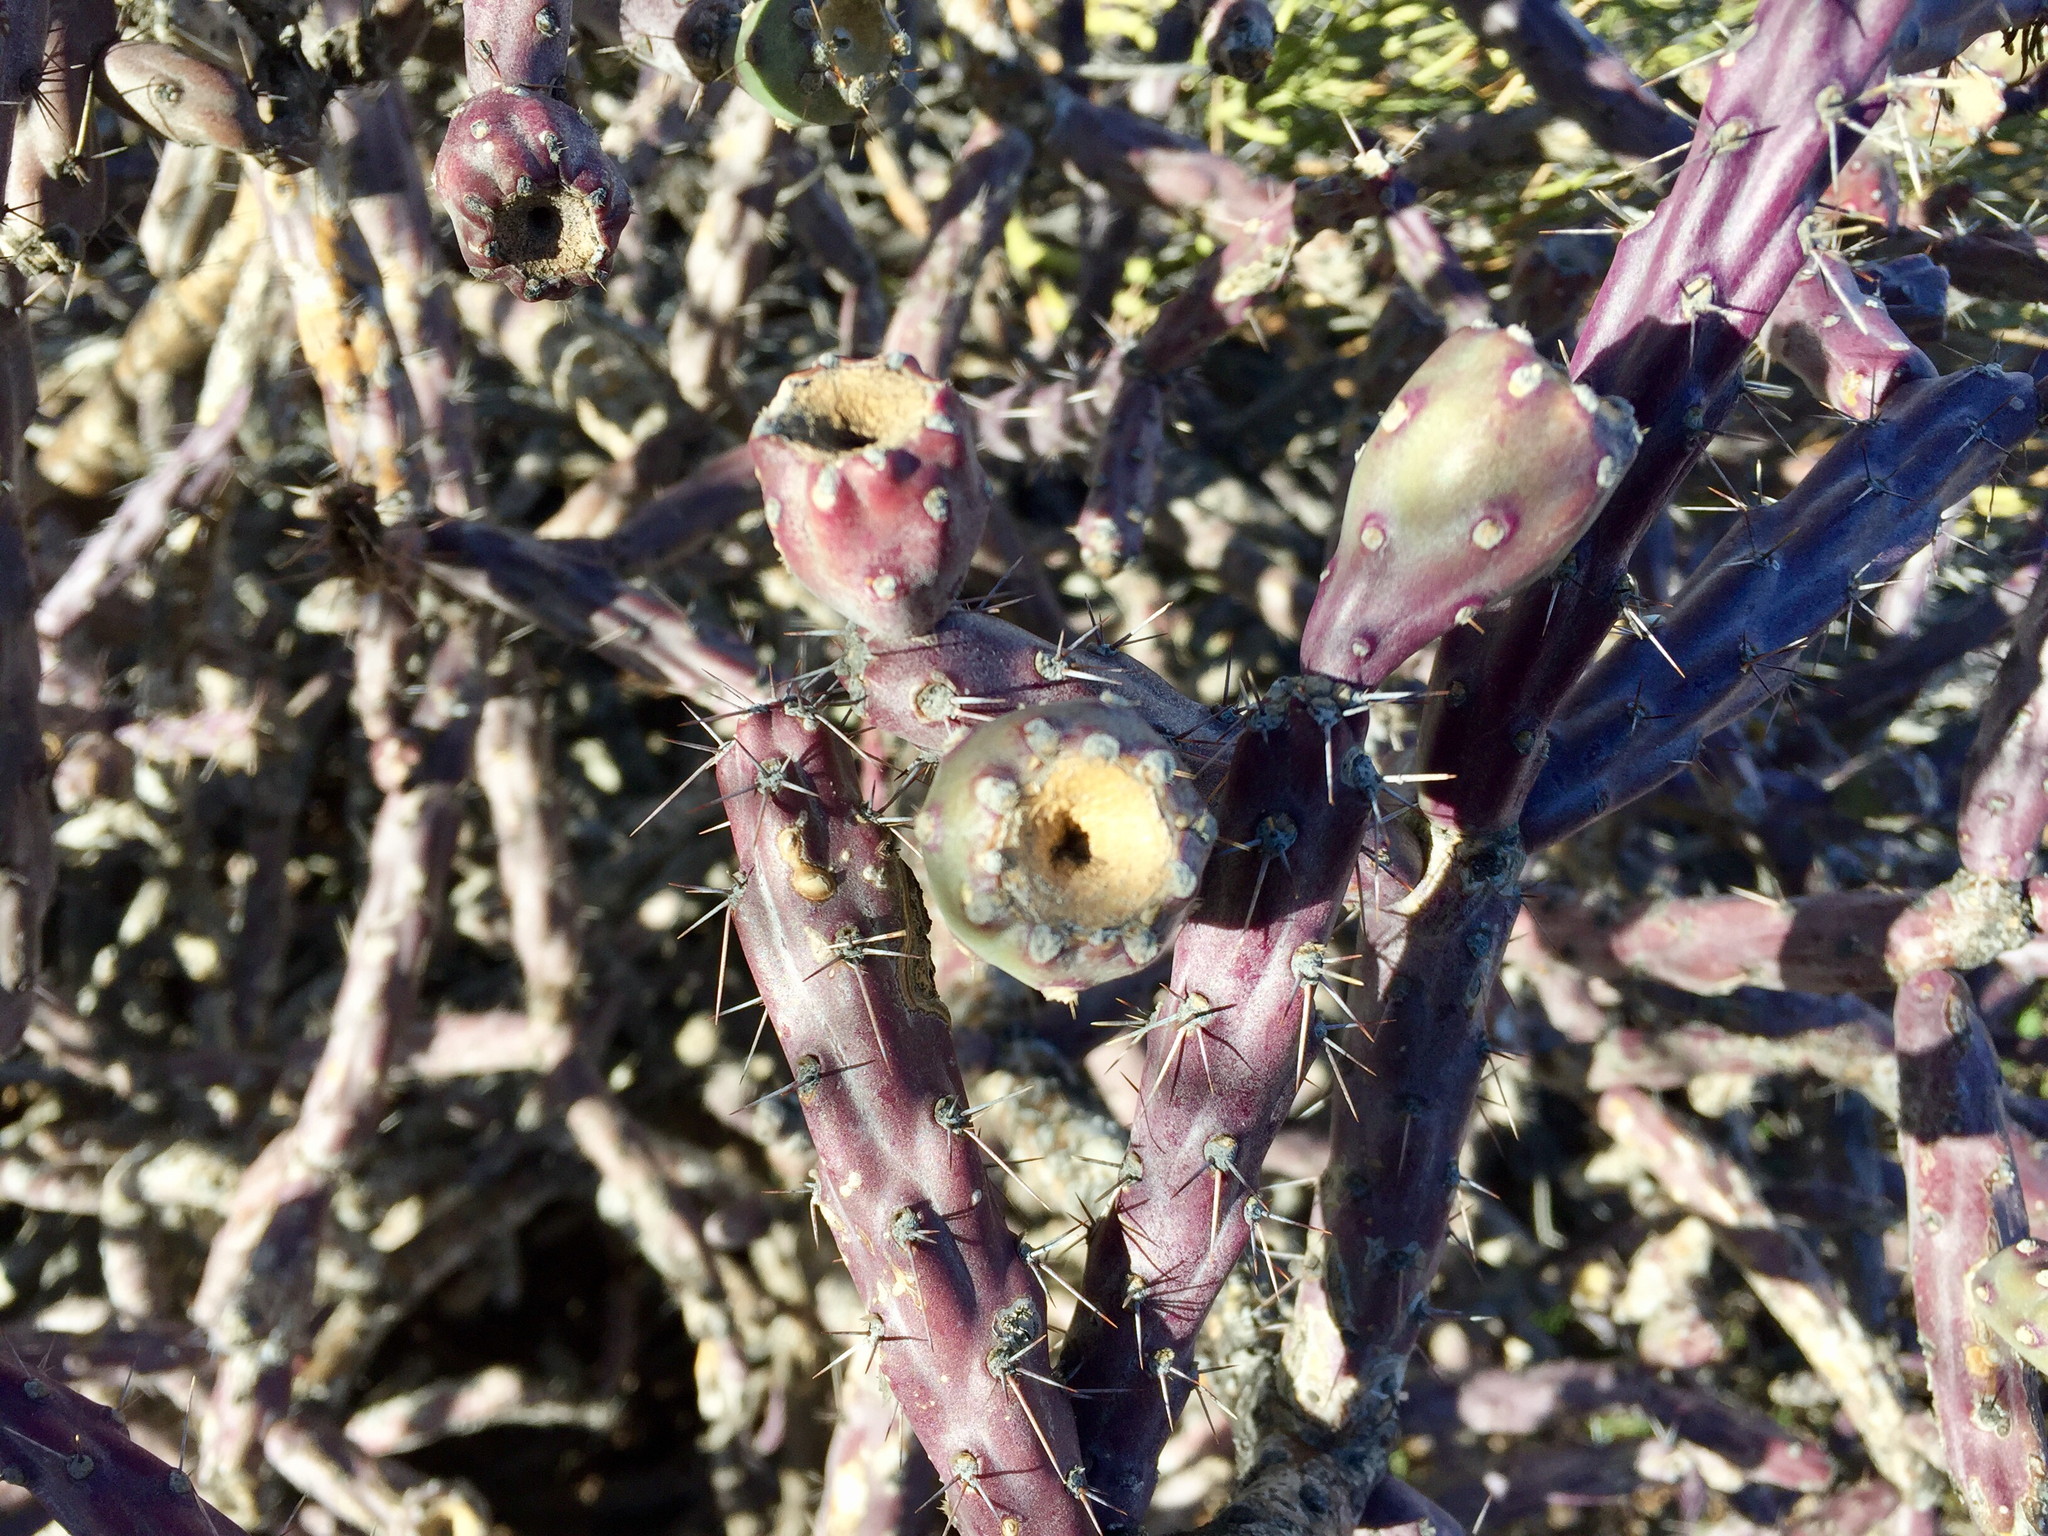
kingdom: Plantae
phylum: Tracheophyta
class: Magnoliopsida
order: Caryophyllales
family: Cactaceae
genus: Cylindropuntia
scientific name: Cylindropuntia thurberi
